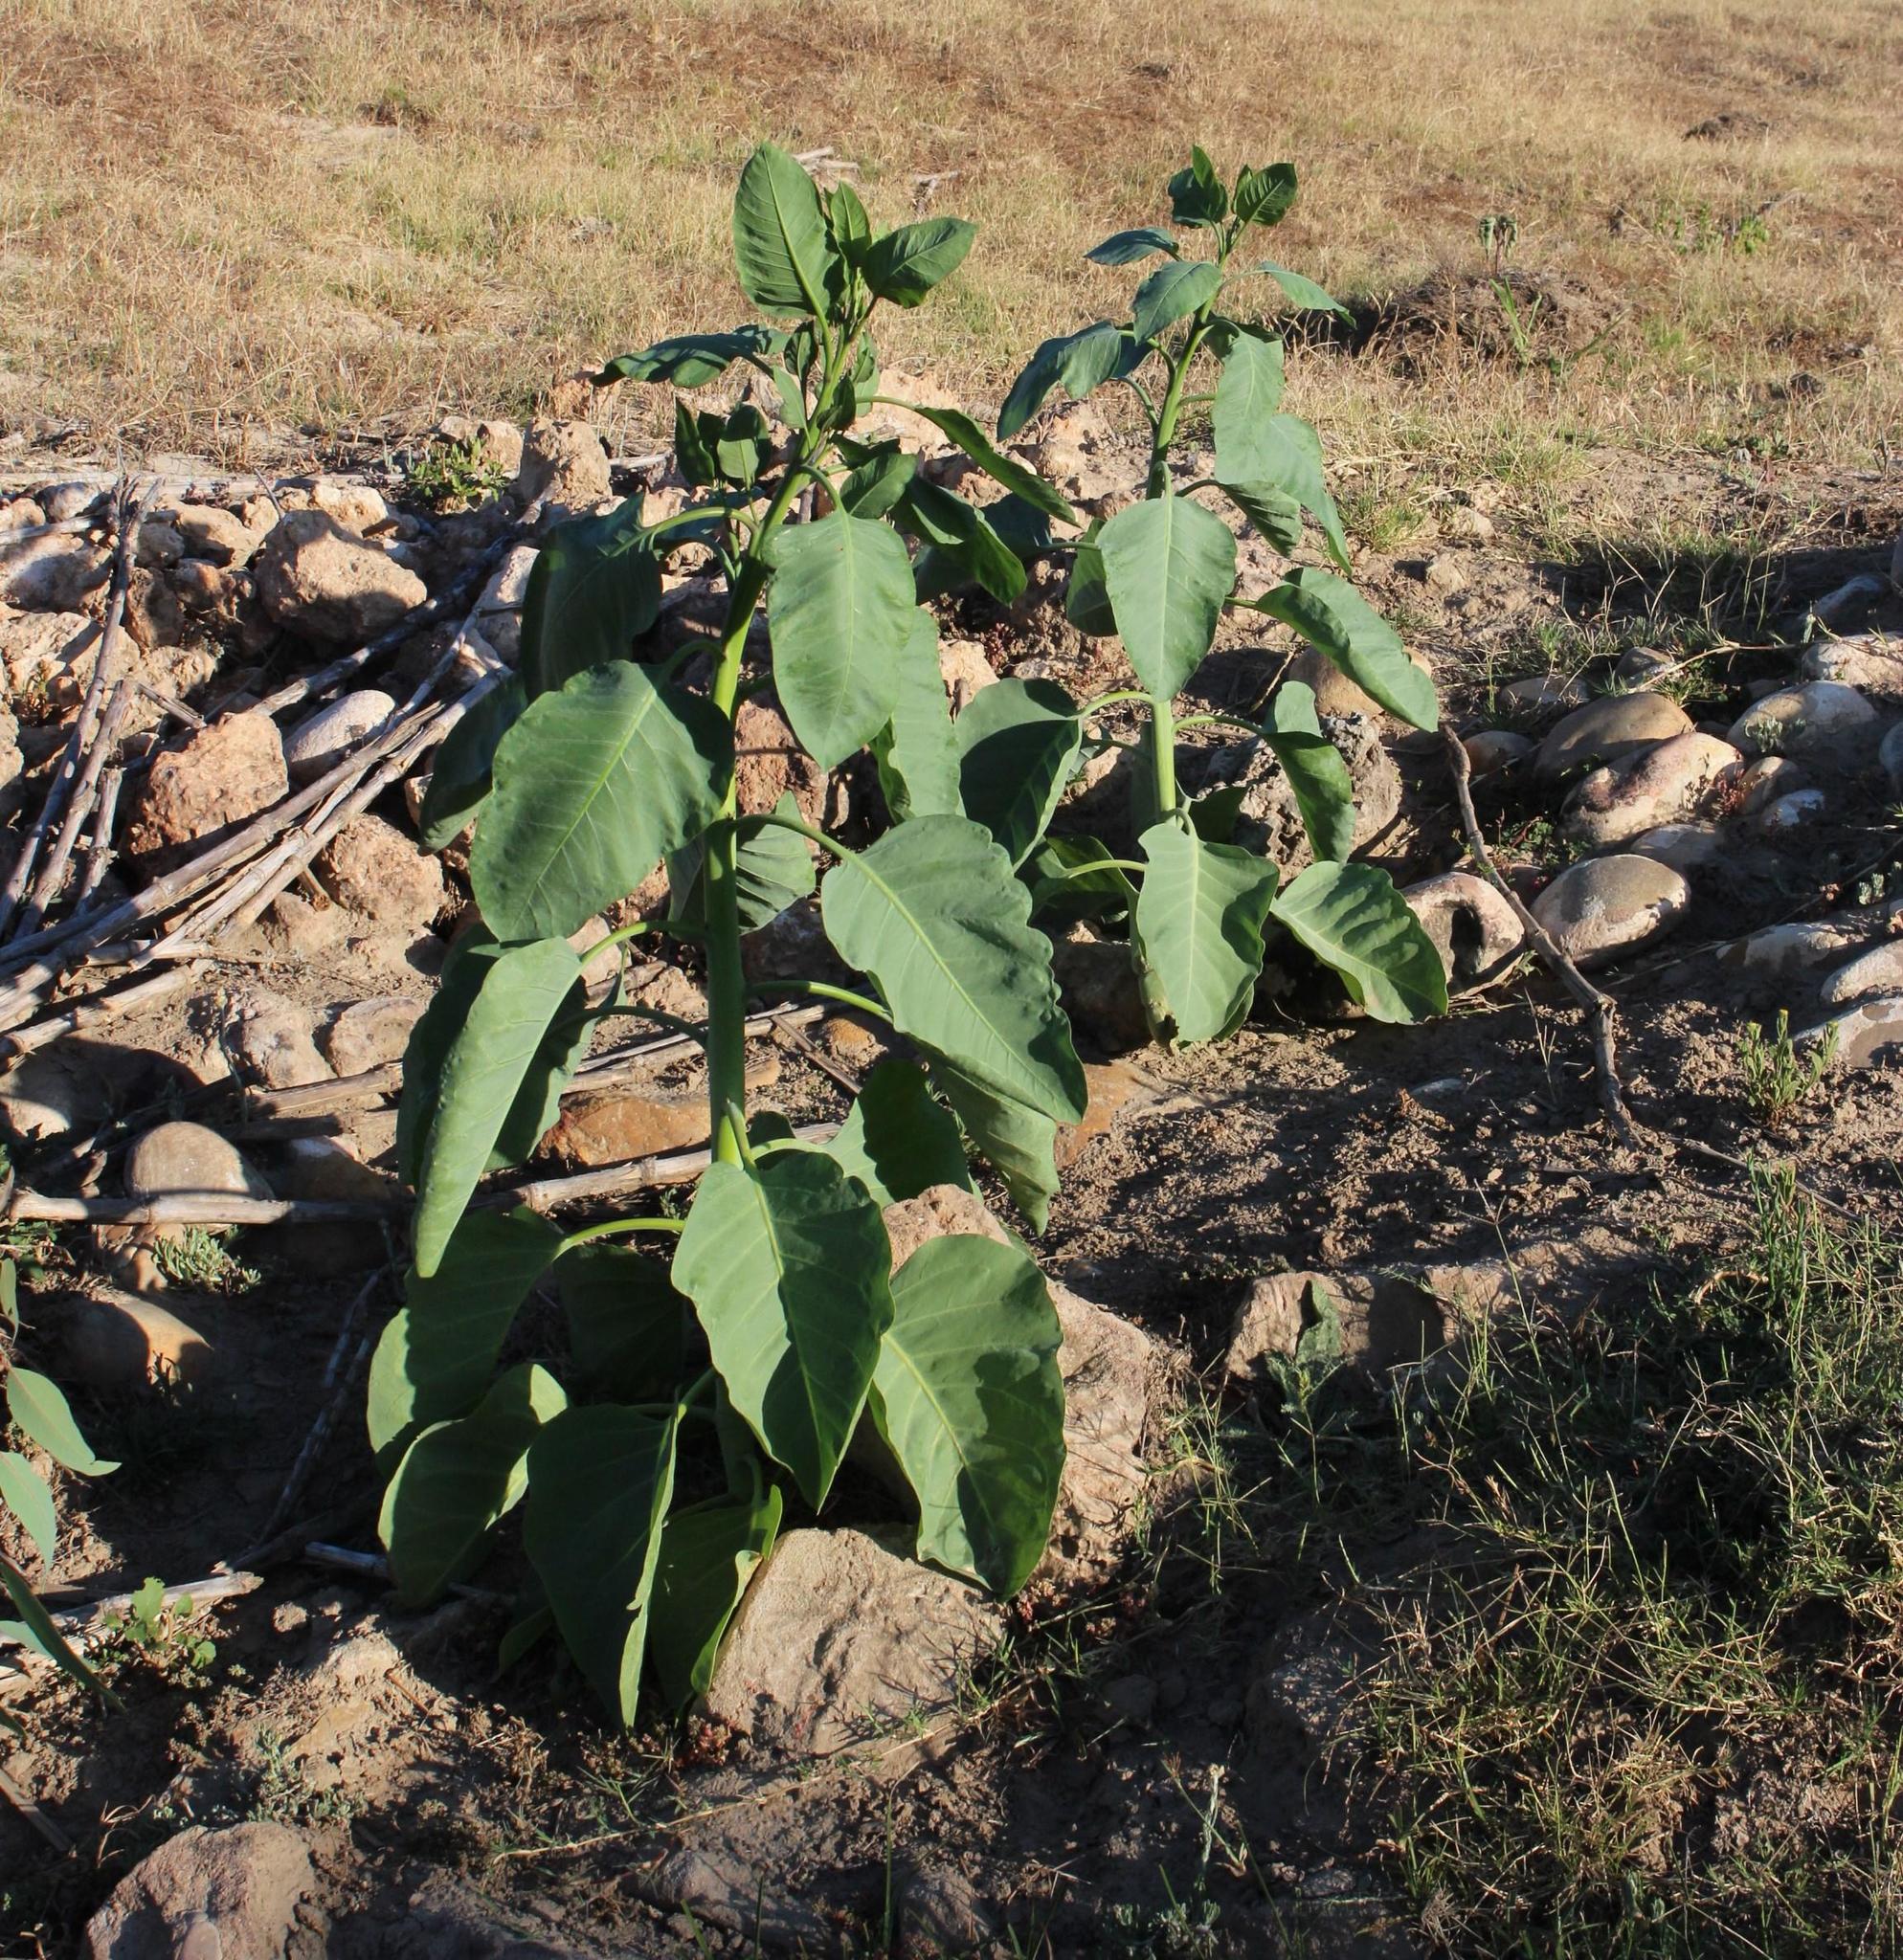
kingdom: Plantae
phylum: Tracheophyta
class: Magnoliopsida
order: Solanales
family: Solanaceae
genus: Nicotiana
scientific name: Nicotiana glauca
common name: Tree tobacco
